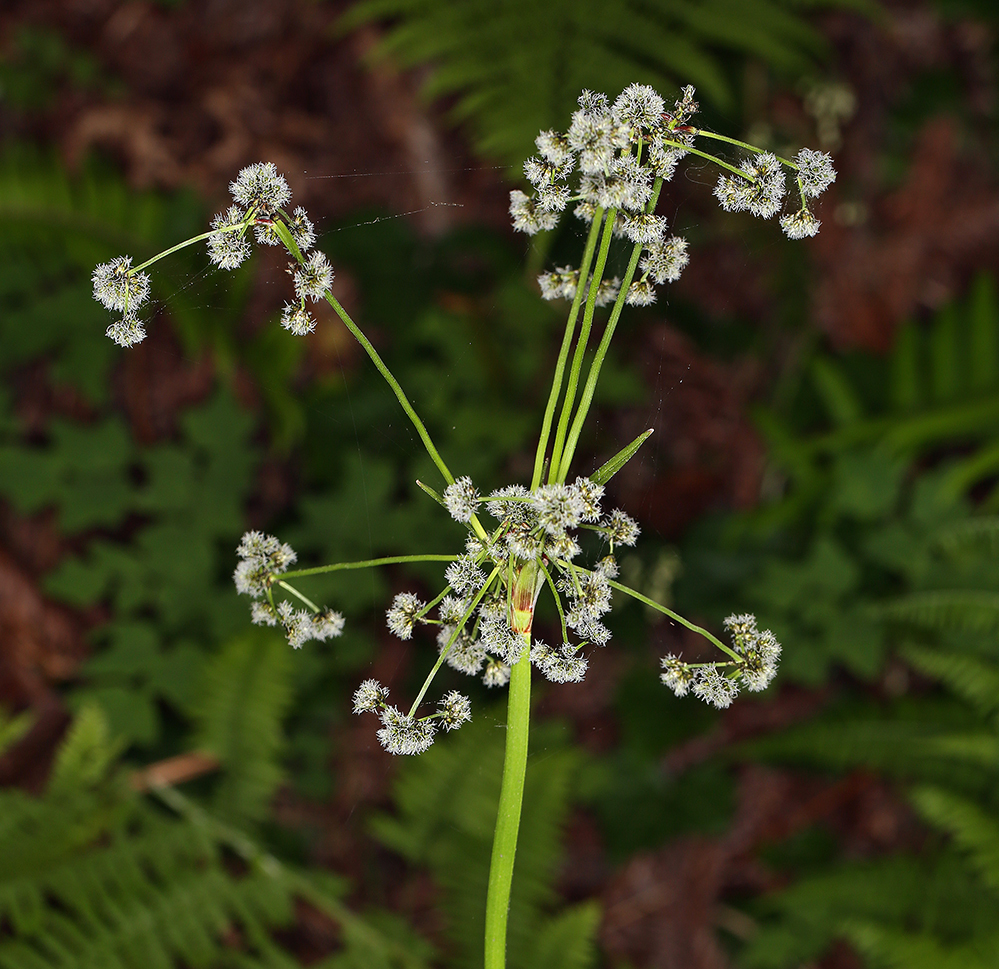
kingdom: Plantae
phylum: Tracheophyta
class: Liliopsida
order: Poales
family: Cyperaceae
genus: Scirpus
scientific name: Scirpus microcarpus
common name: Panicled bulrush
